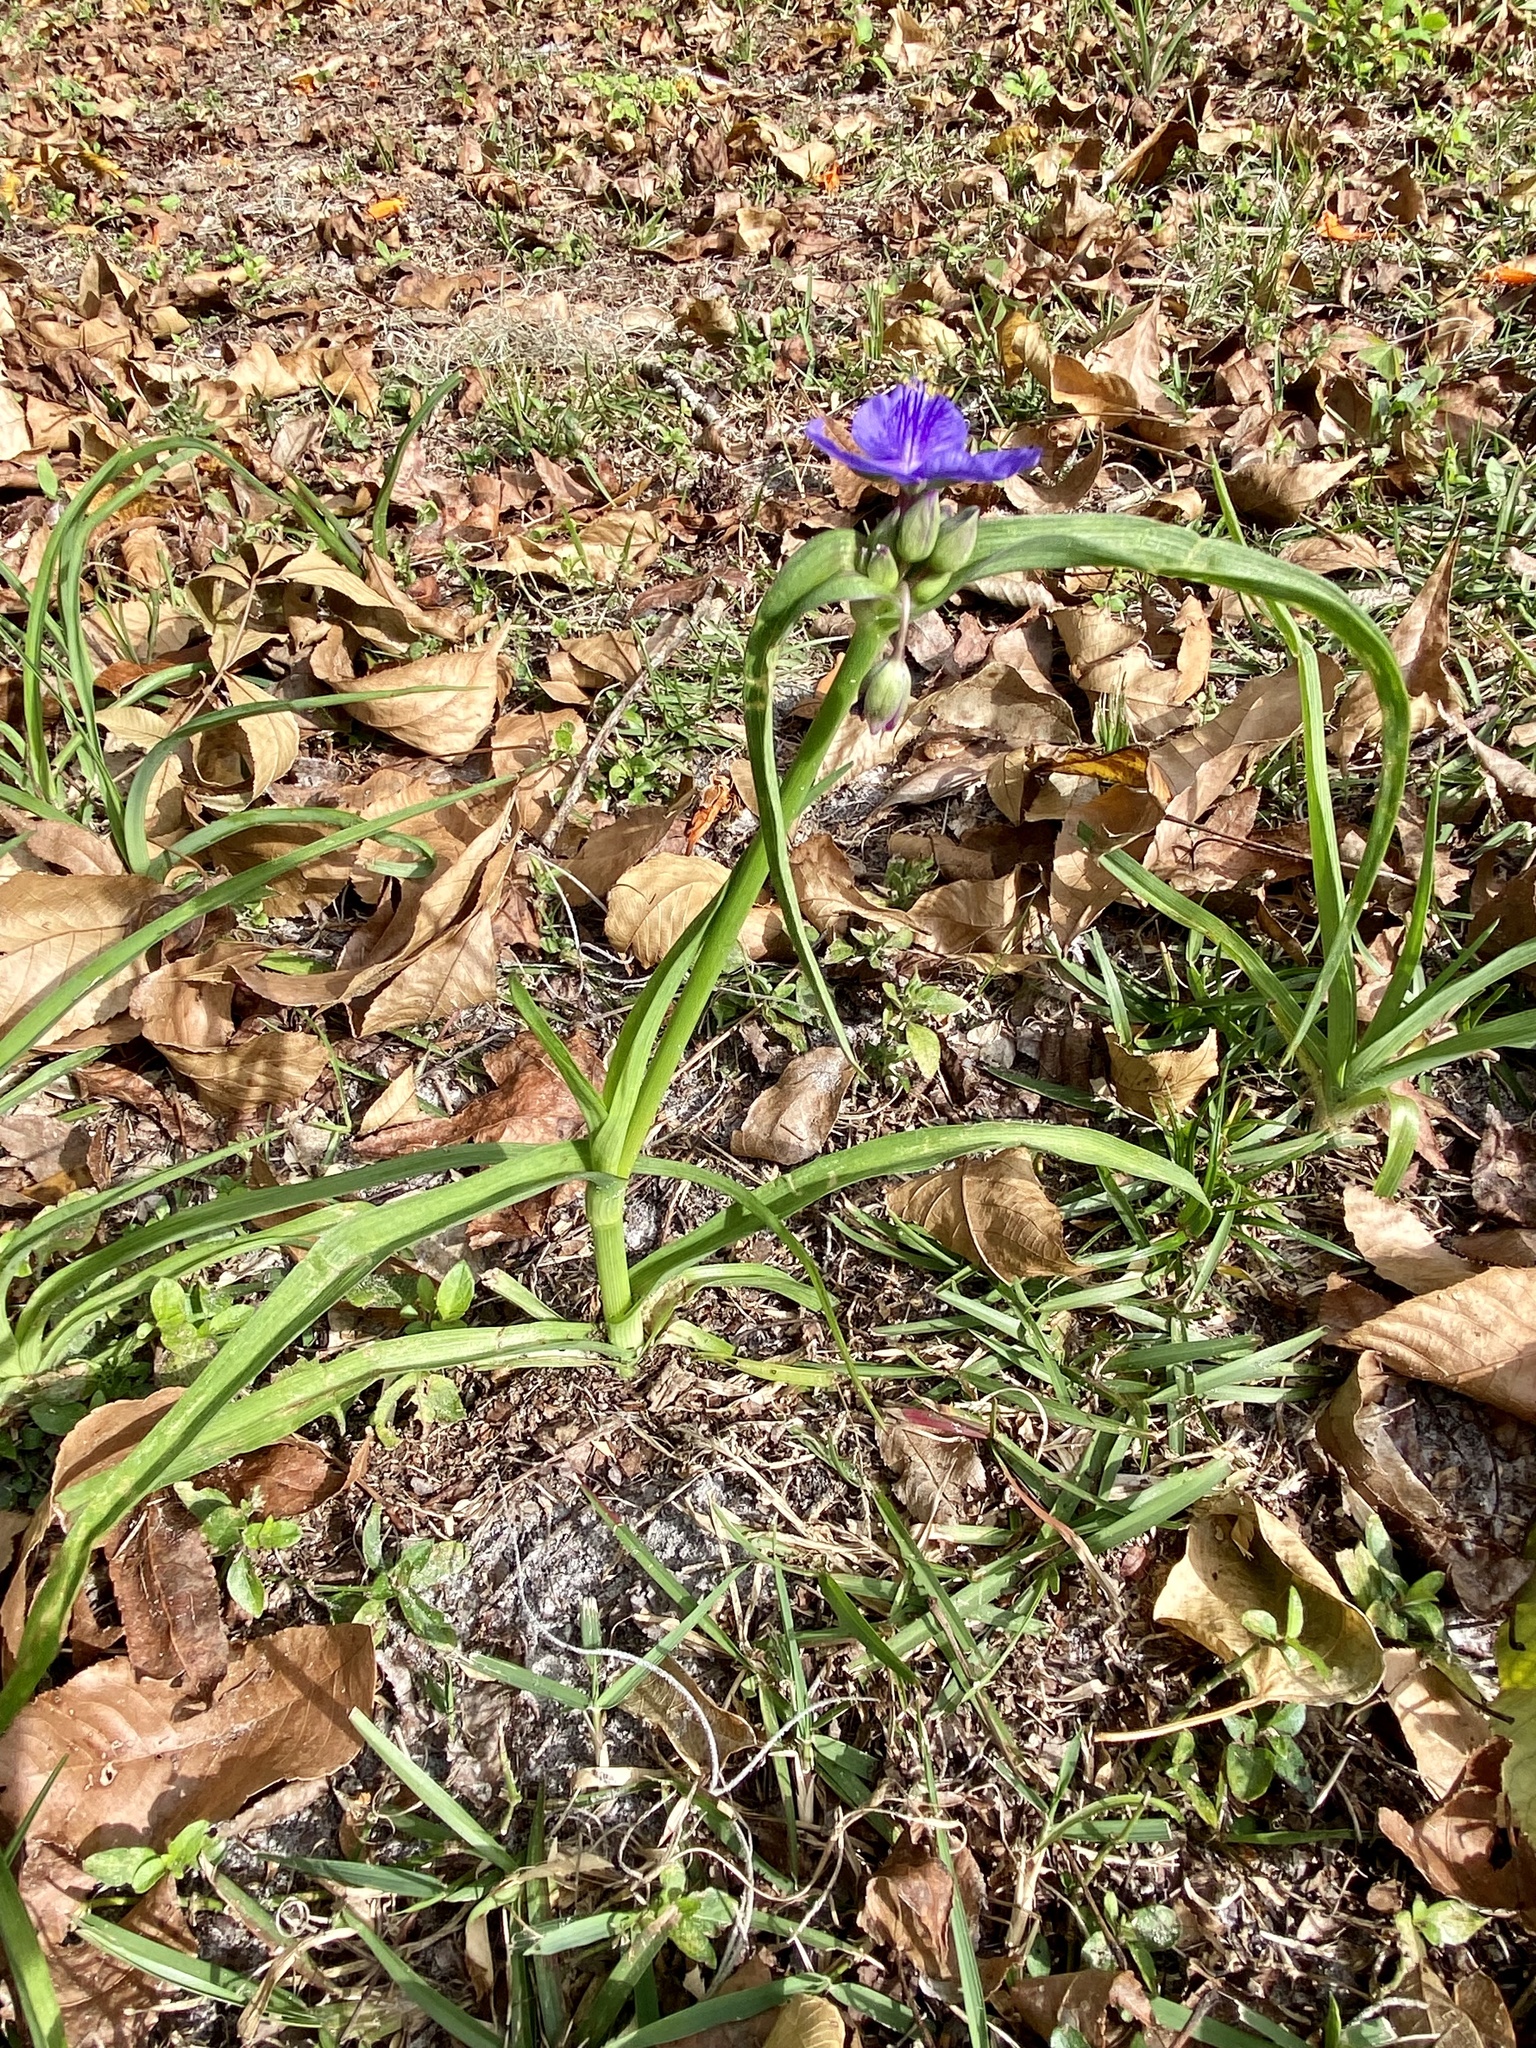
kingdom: Plantae
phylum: Tracheophyta
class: Liliopsida
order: Commelinales
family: Commelinaceae
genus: Tradescantia
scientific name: Tradescantia ohiensis
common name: Ohio spiderwort
